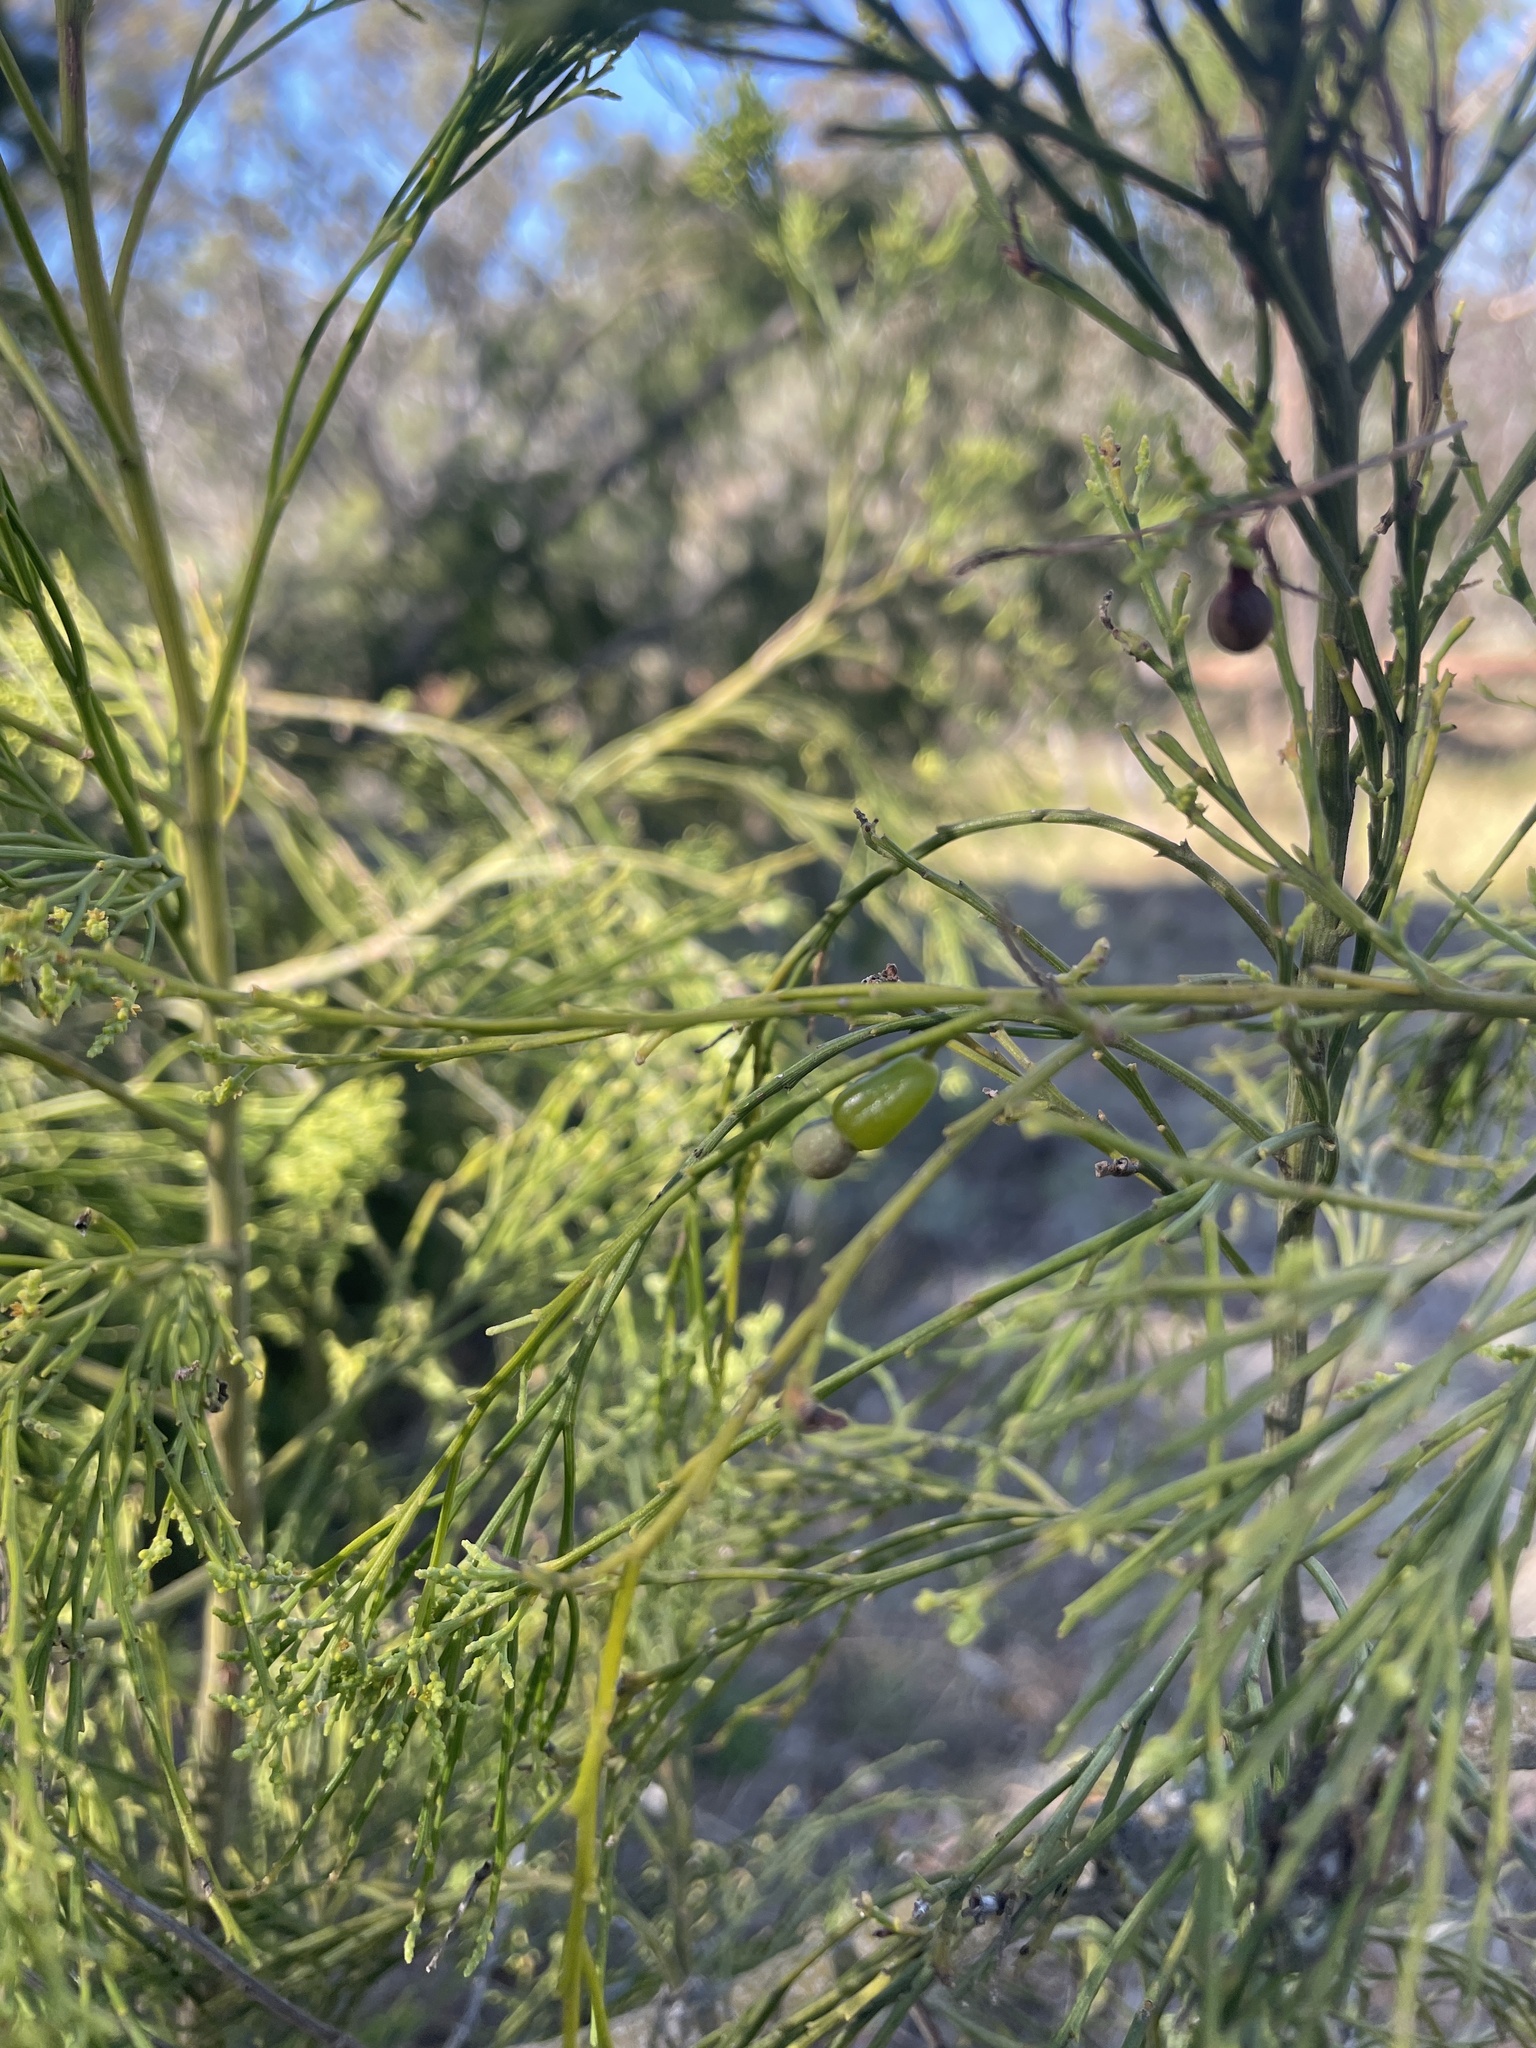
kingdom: Plantae
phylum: Tracheophyta
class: Magnoliopsida
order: Santalales
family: Santalaceae
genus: Exocarpos
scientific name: Exocarpos cupressiformis
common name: Cherry ballart
